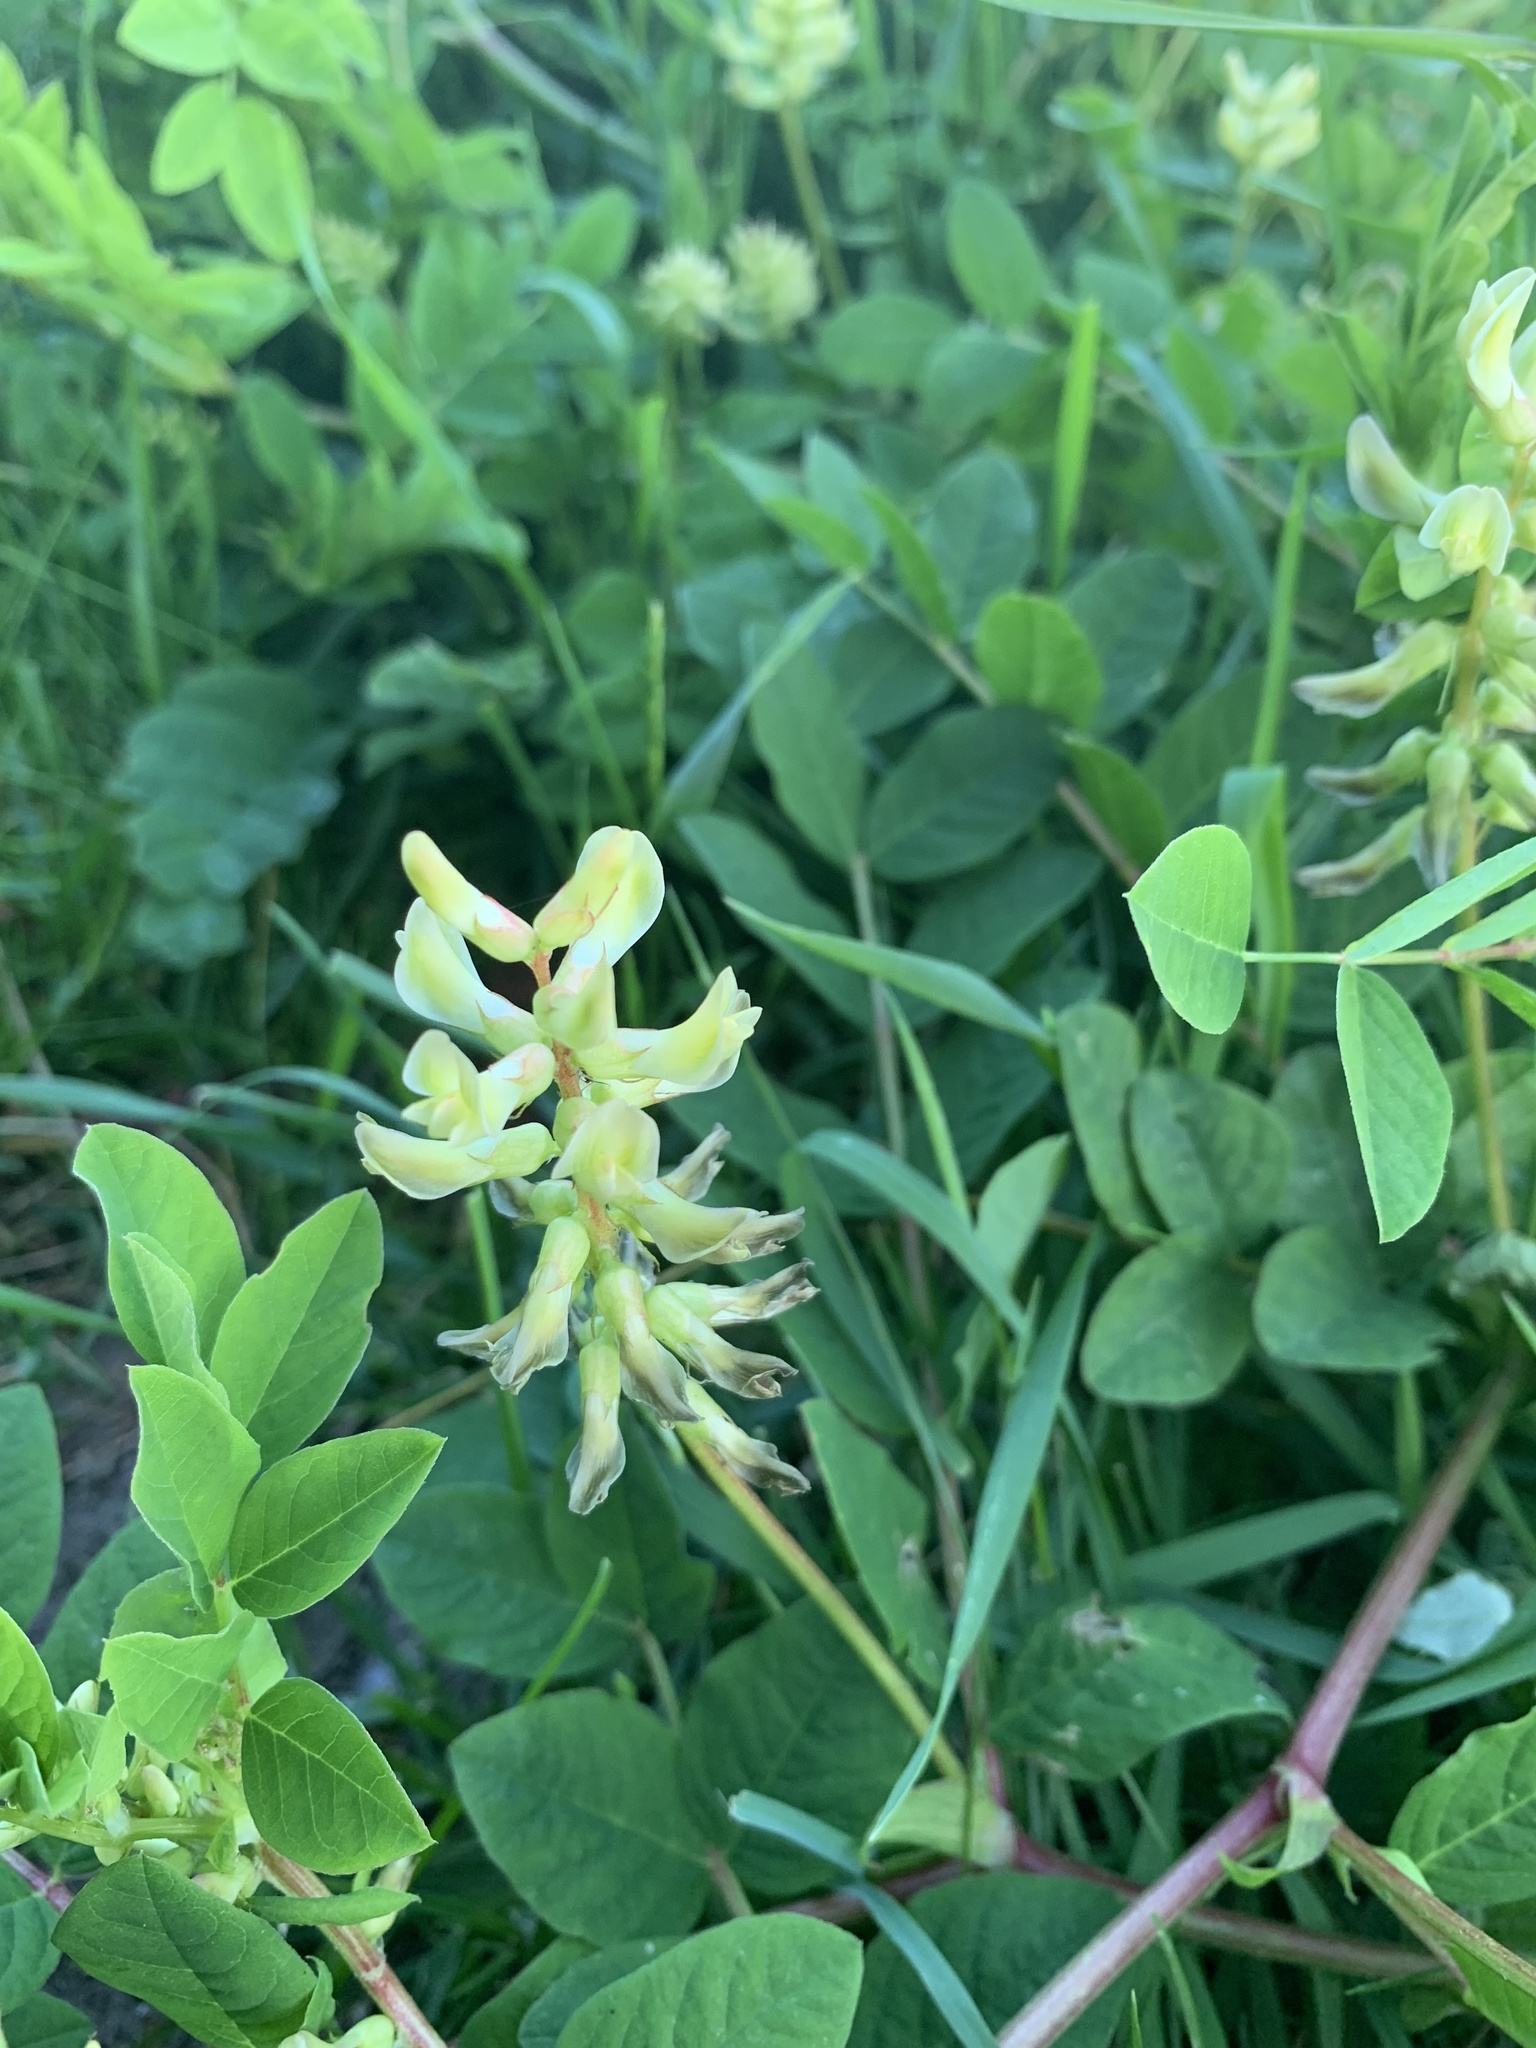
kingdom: Plantae
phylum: Tracheophyta
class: Magnoliopsida
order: Fabales
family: Fabaceae
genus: Astragalus
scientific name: Astragalus glycyphyllos
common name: Wild liquorice
